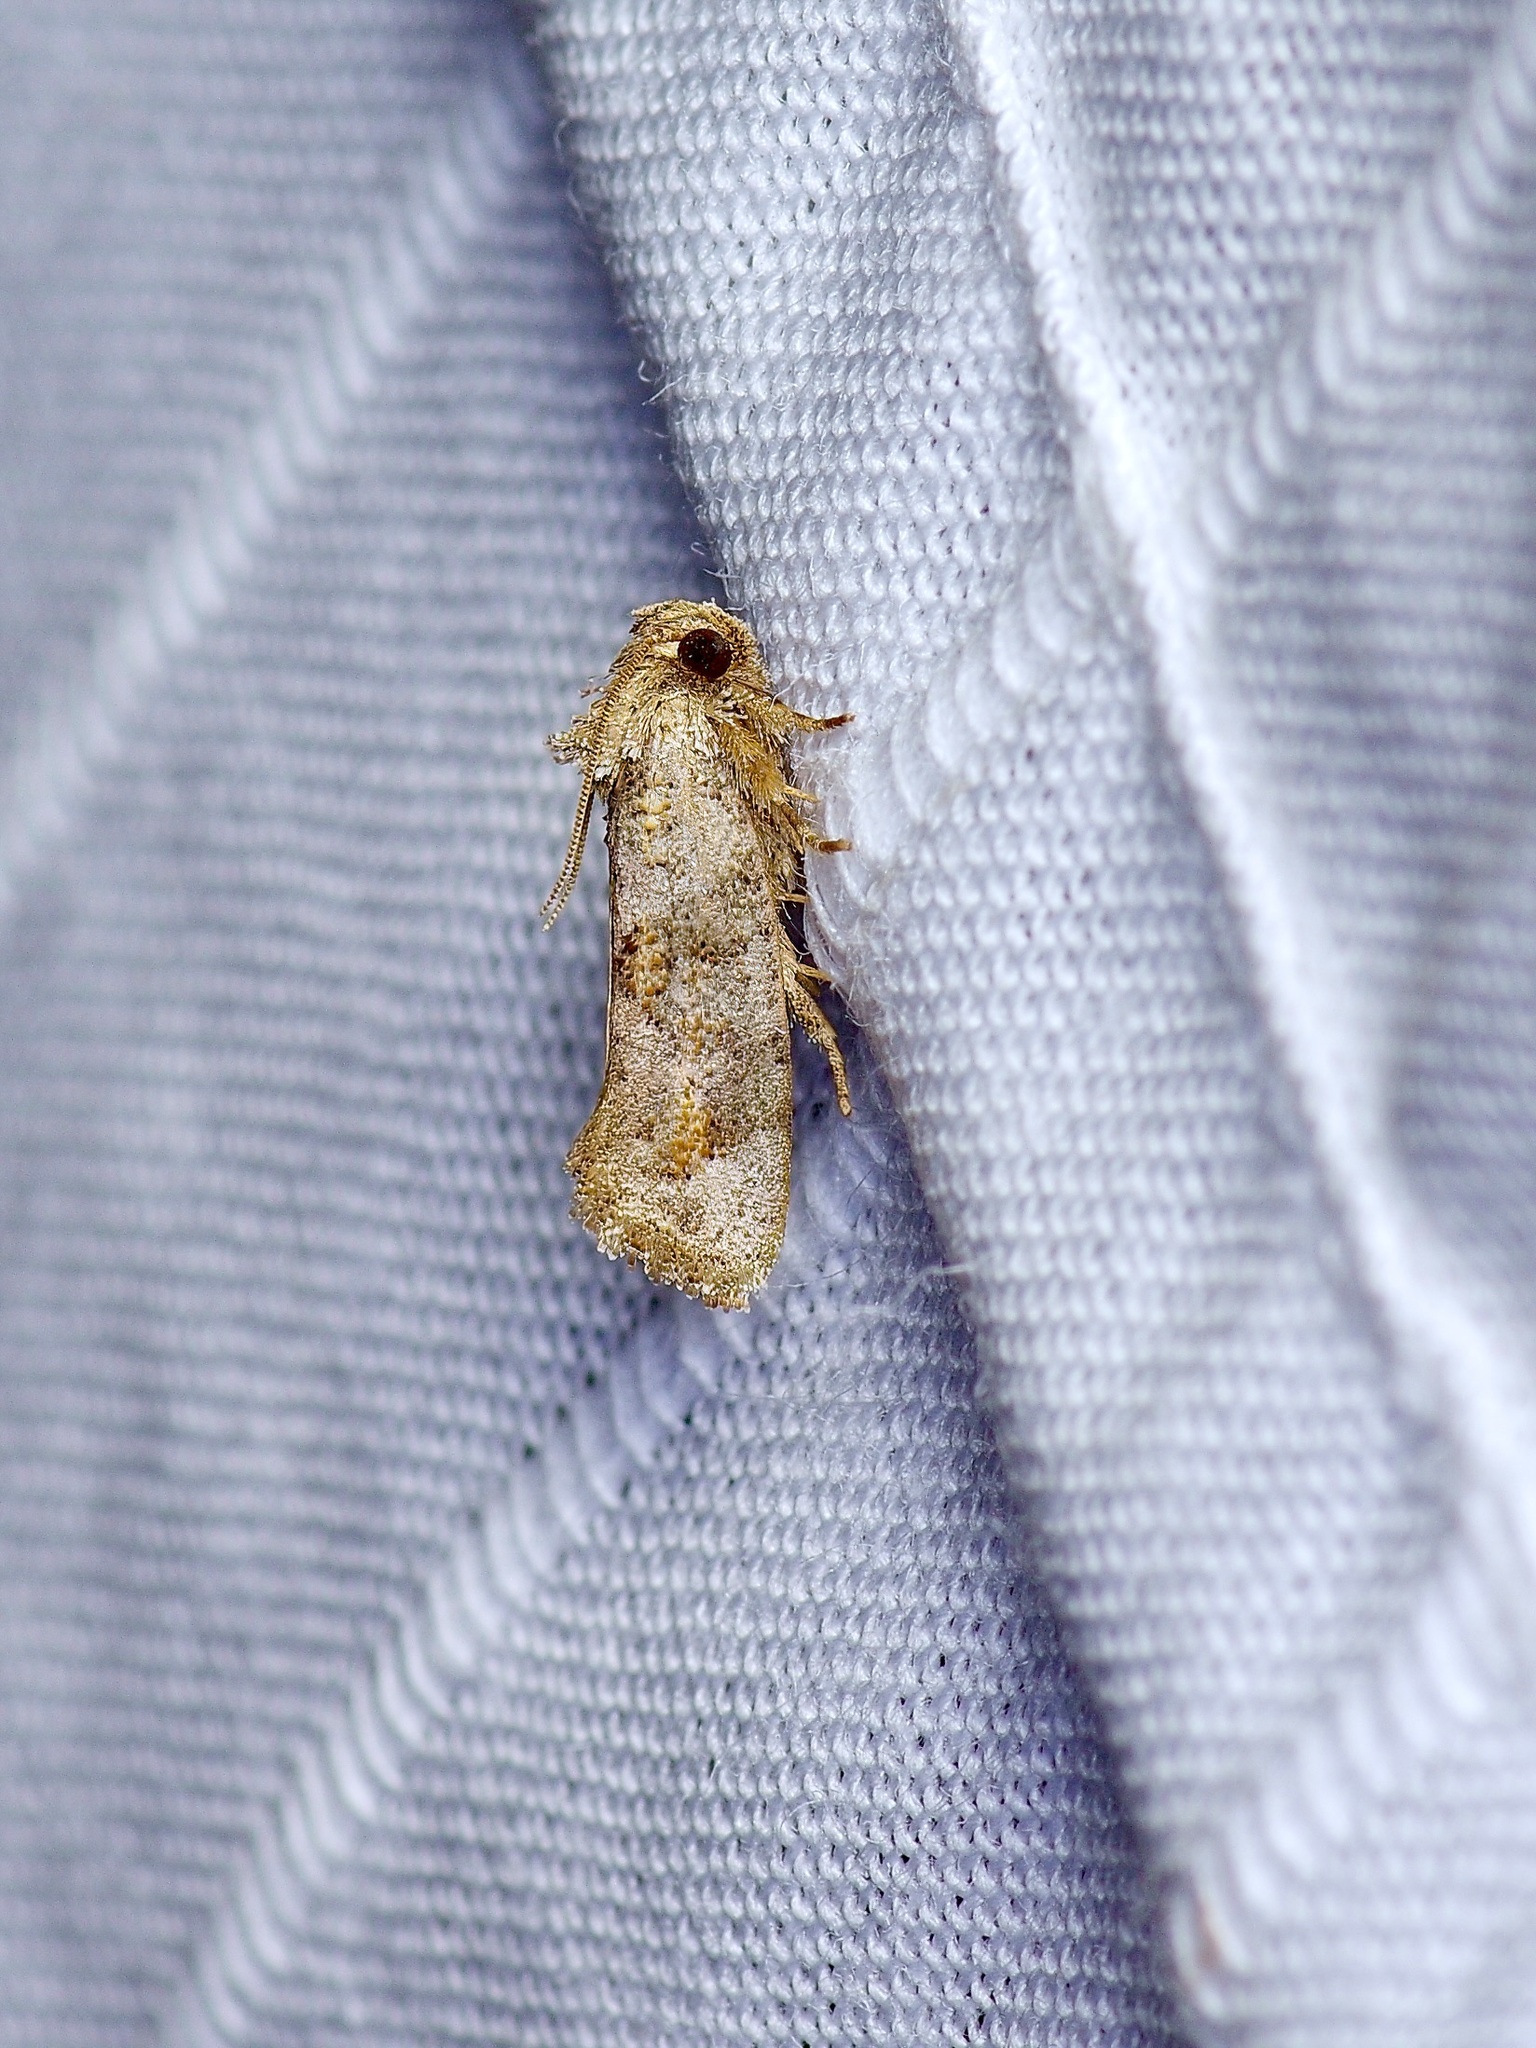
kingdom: Animalia
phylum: Arthropoda
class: Insecta
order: Lepidoptera
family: Tineidae
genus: Acrolophus
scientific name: Acrolophus piger
